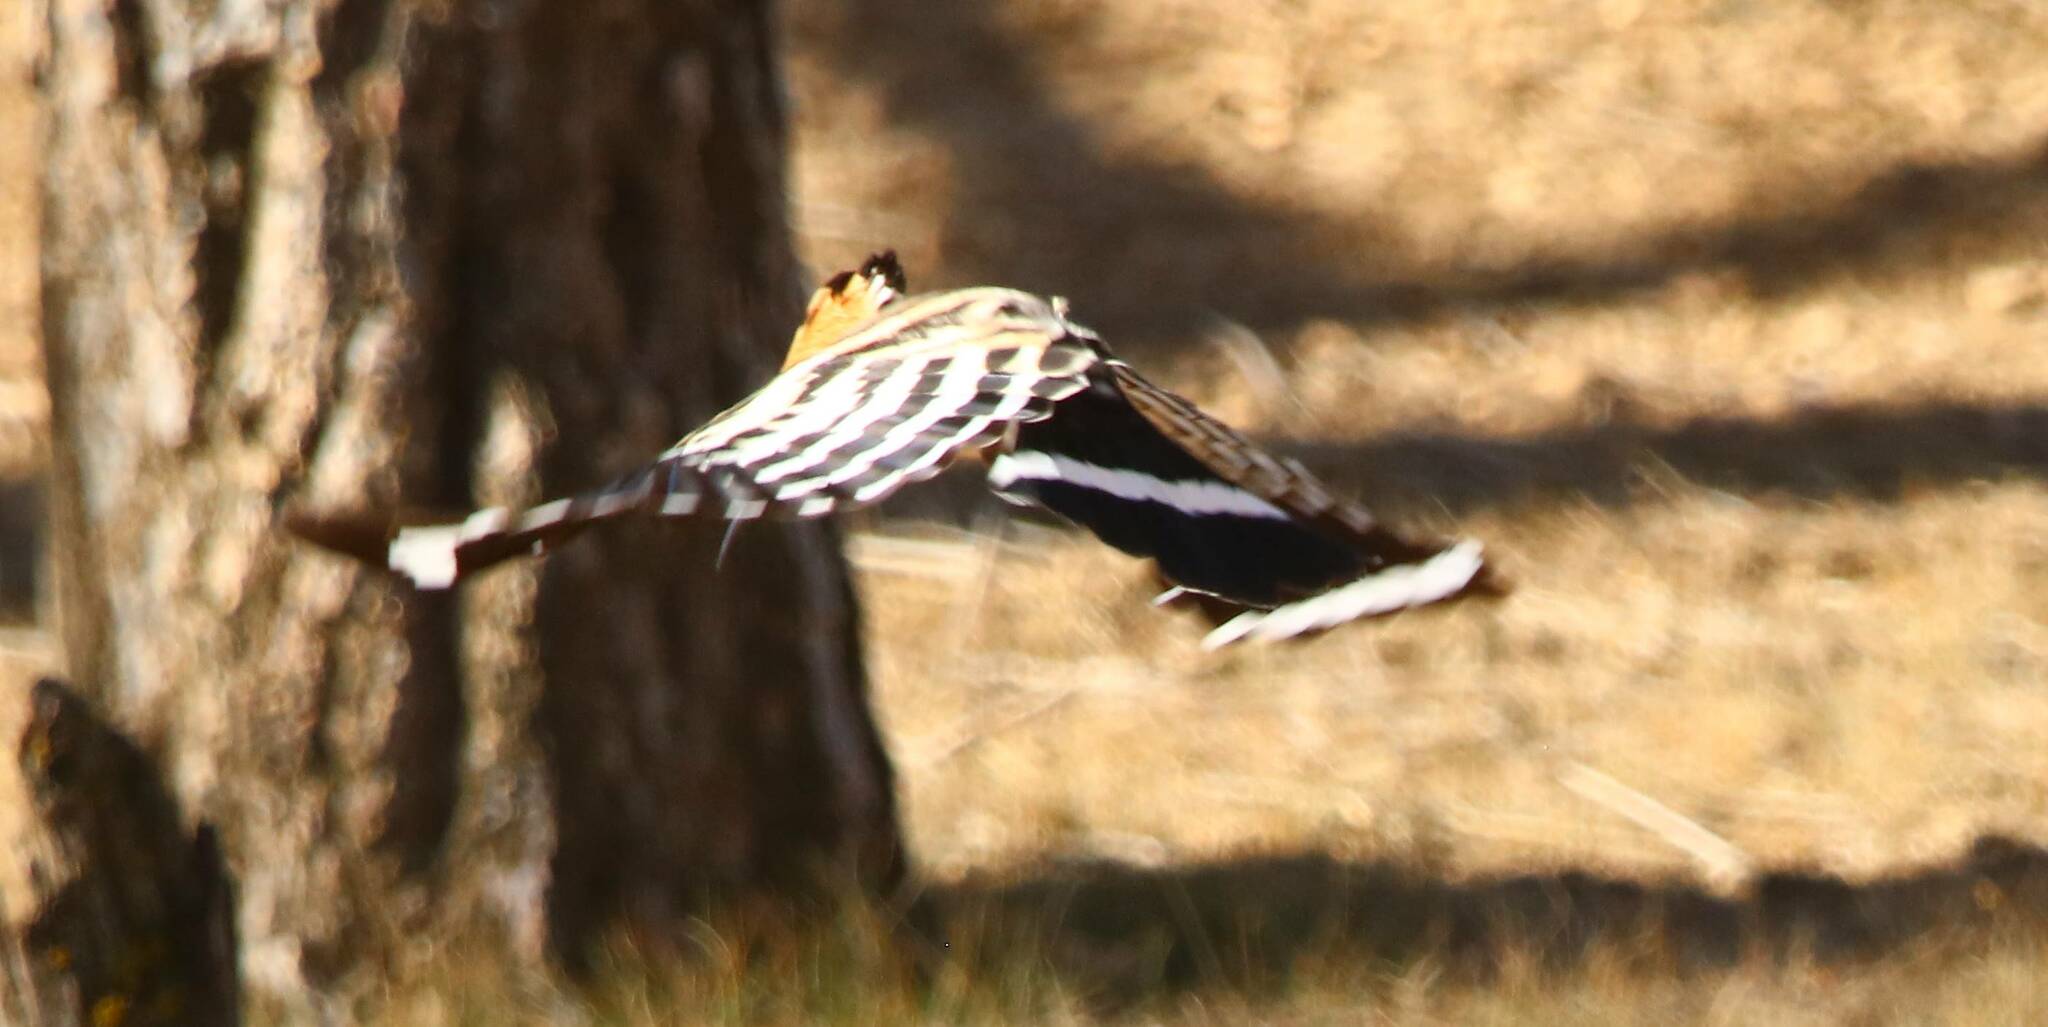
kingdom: Animalia
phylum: Chordata
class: Aves
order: Bucerotiformes
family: Upupidae
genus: Upupa
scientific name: Upupa epops
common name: Eurasian hoopoe
